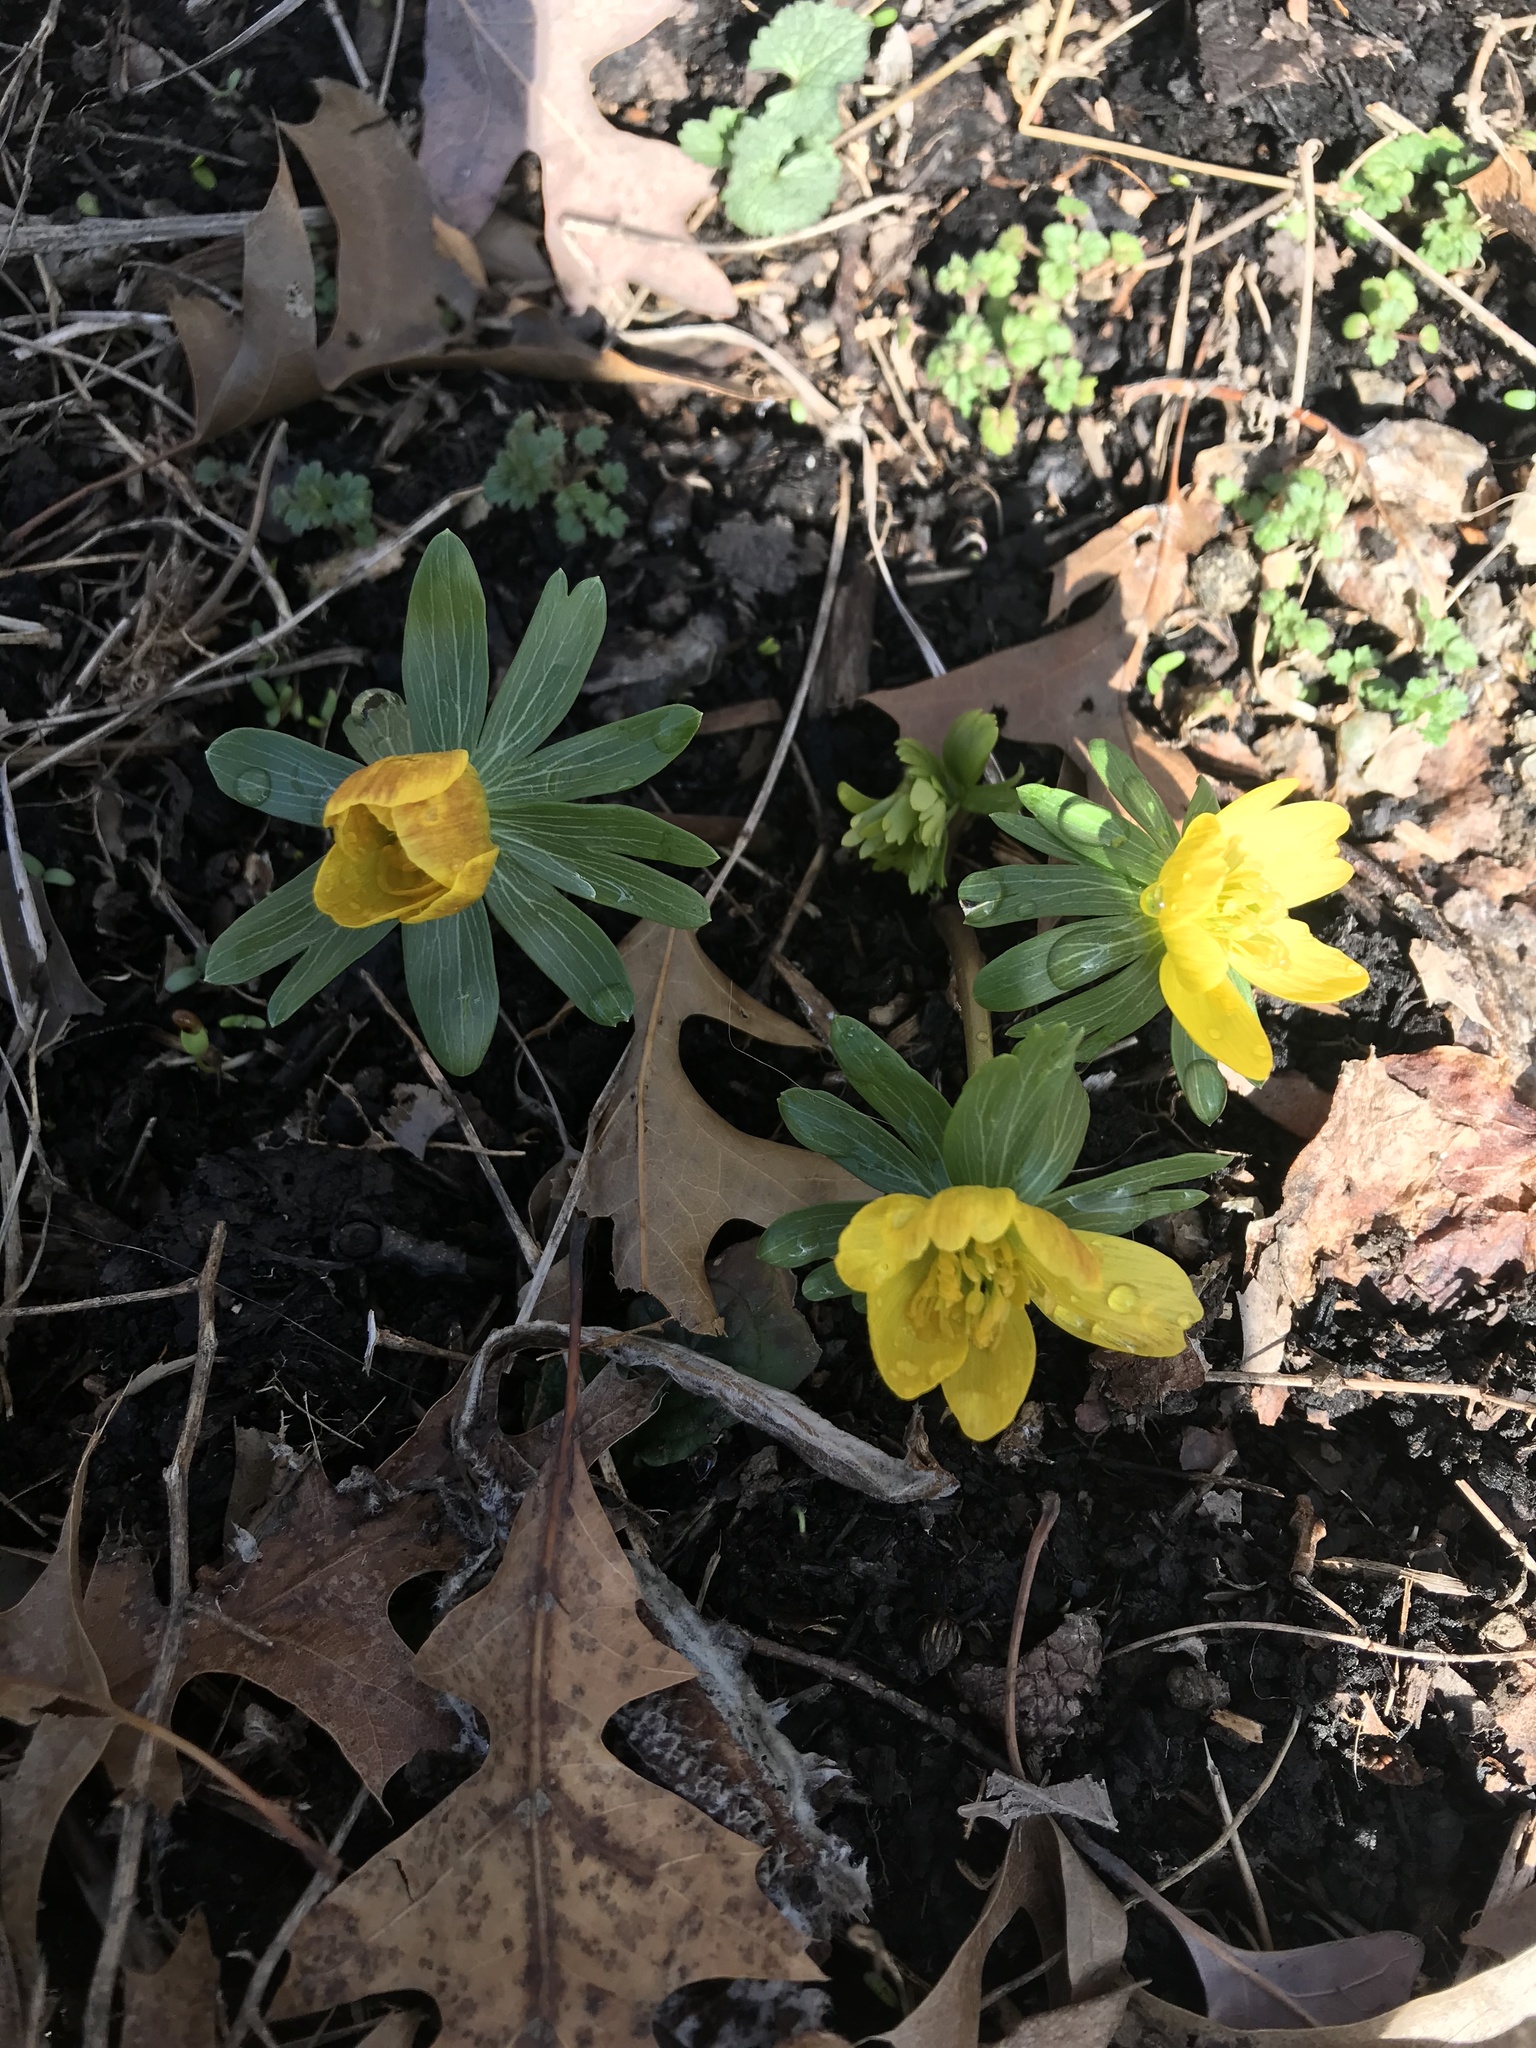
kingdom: Plantae
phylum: Tracheophyta
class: Magnoliopsida
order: Ranunculales
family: Ranunculaceae
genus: Eranthis
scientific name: Eranthis hyemalis
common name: Winter aconite
